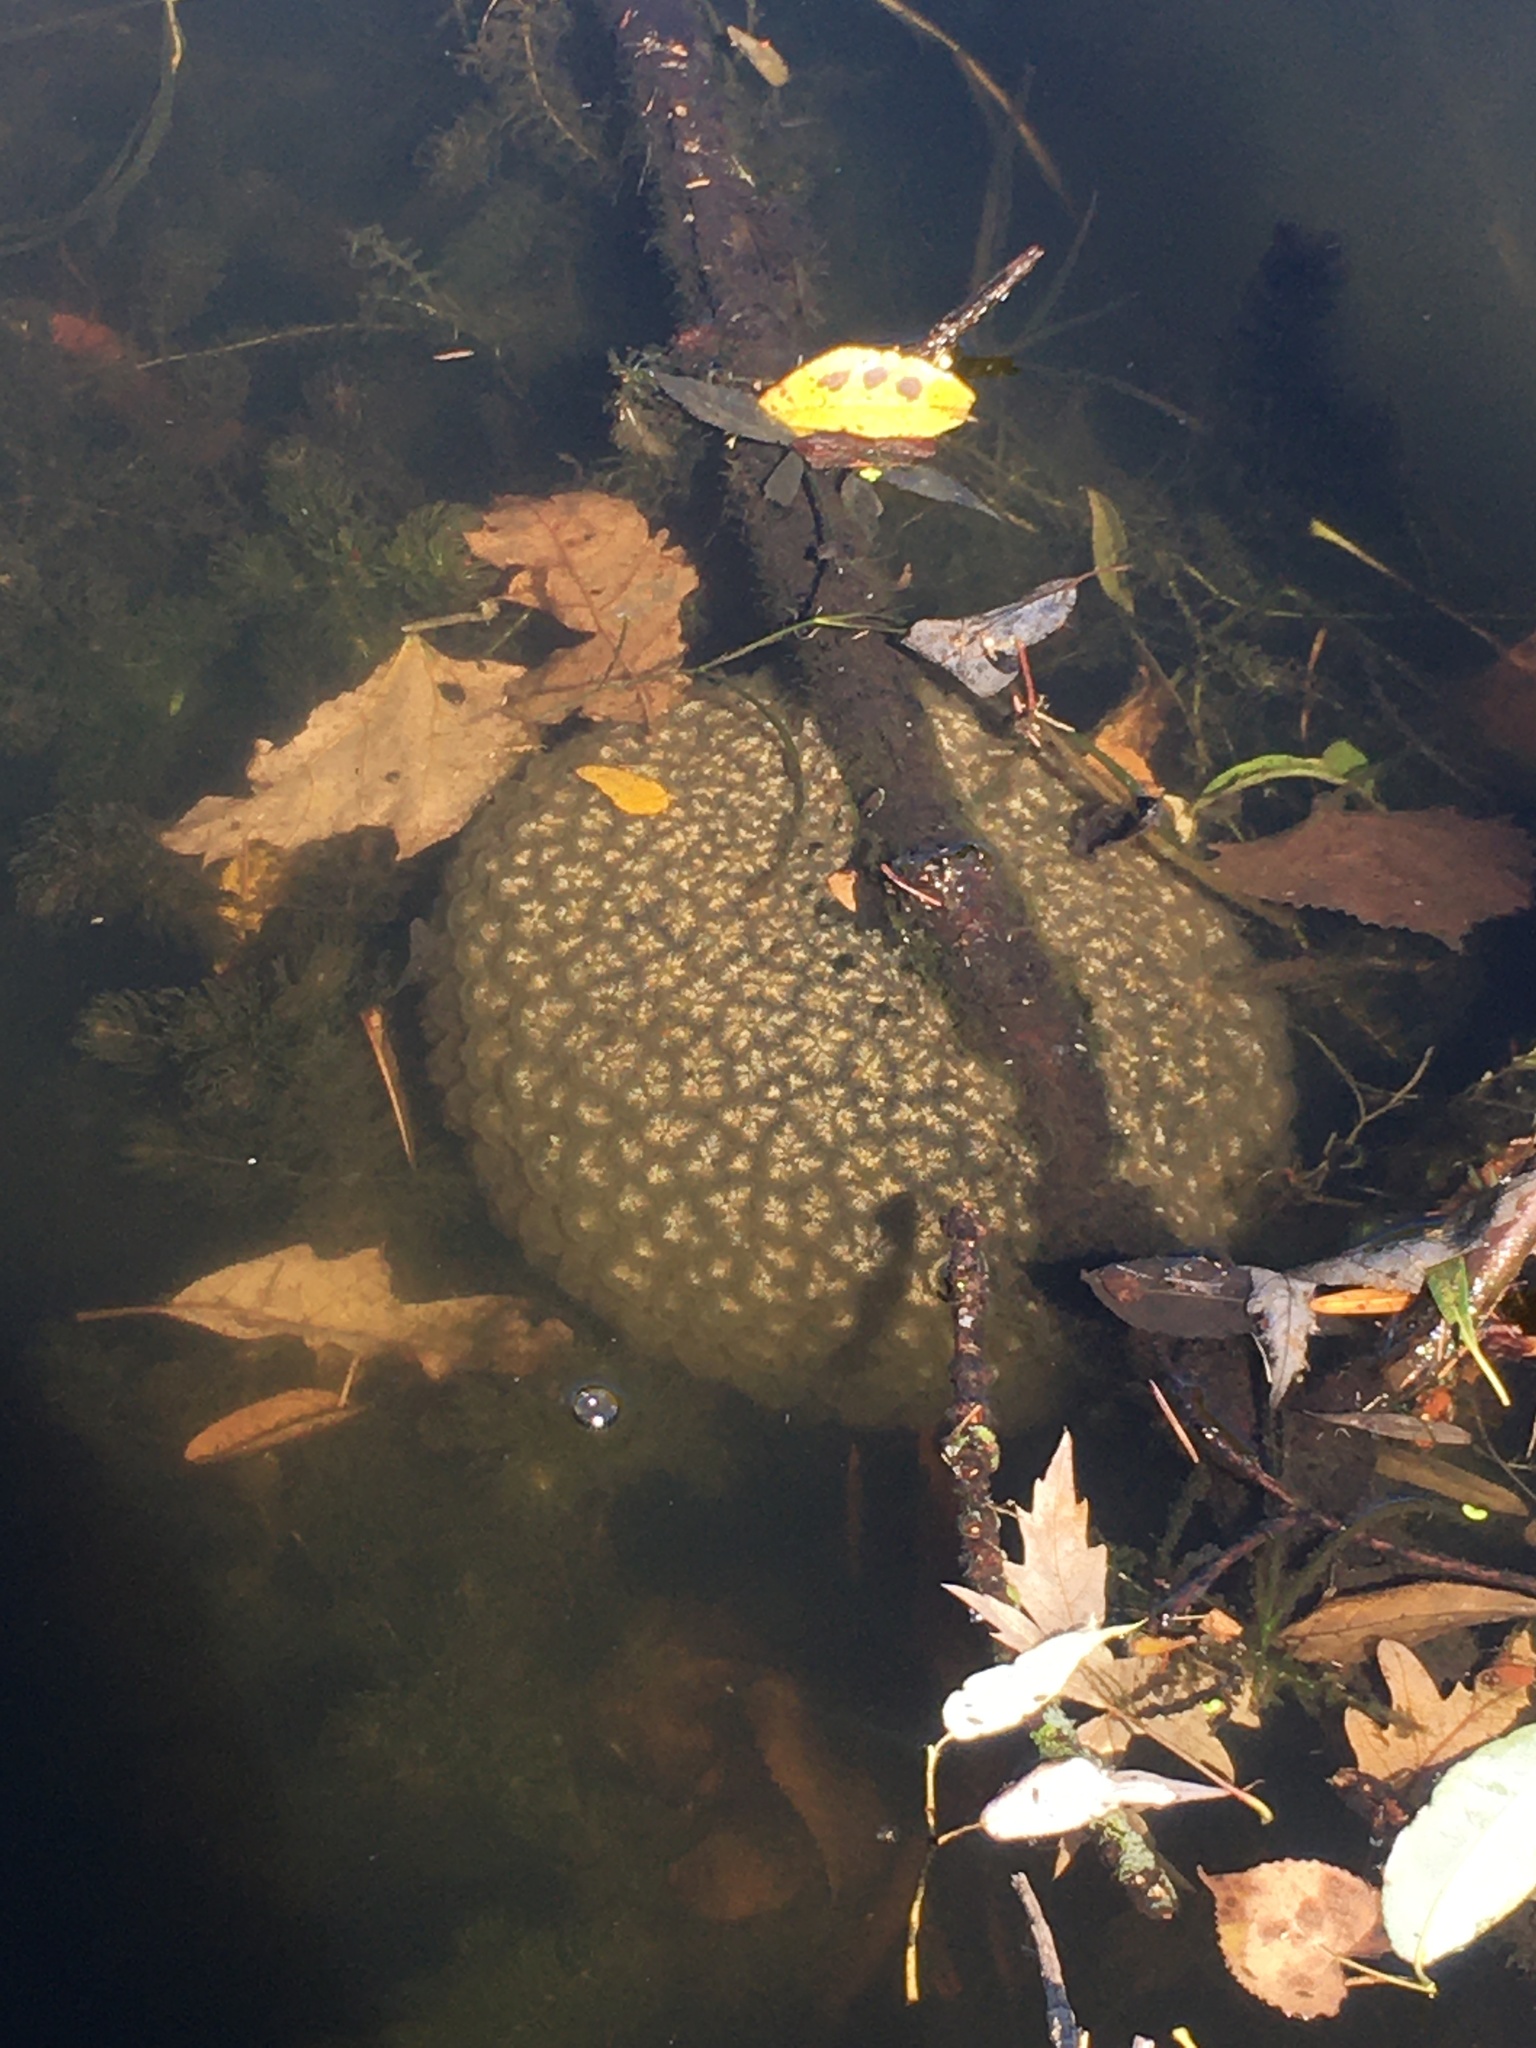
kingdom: Animalia
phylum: Bryozoa
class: Phylactolaemata
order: Plumatellida
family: Pectinatellidae
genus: Pectinatella
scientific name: Pectinatella magnifica
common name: Magnificent bryozoan
